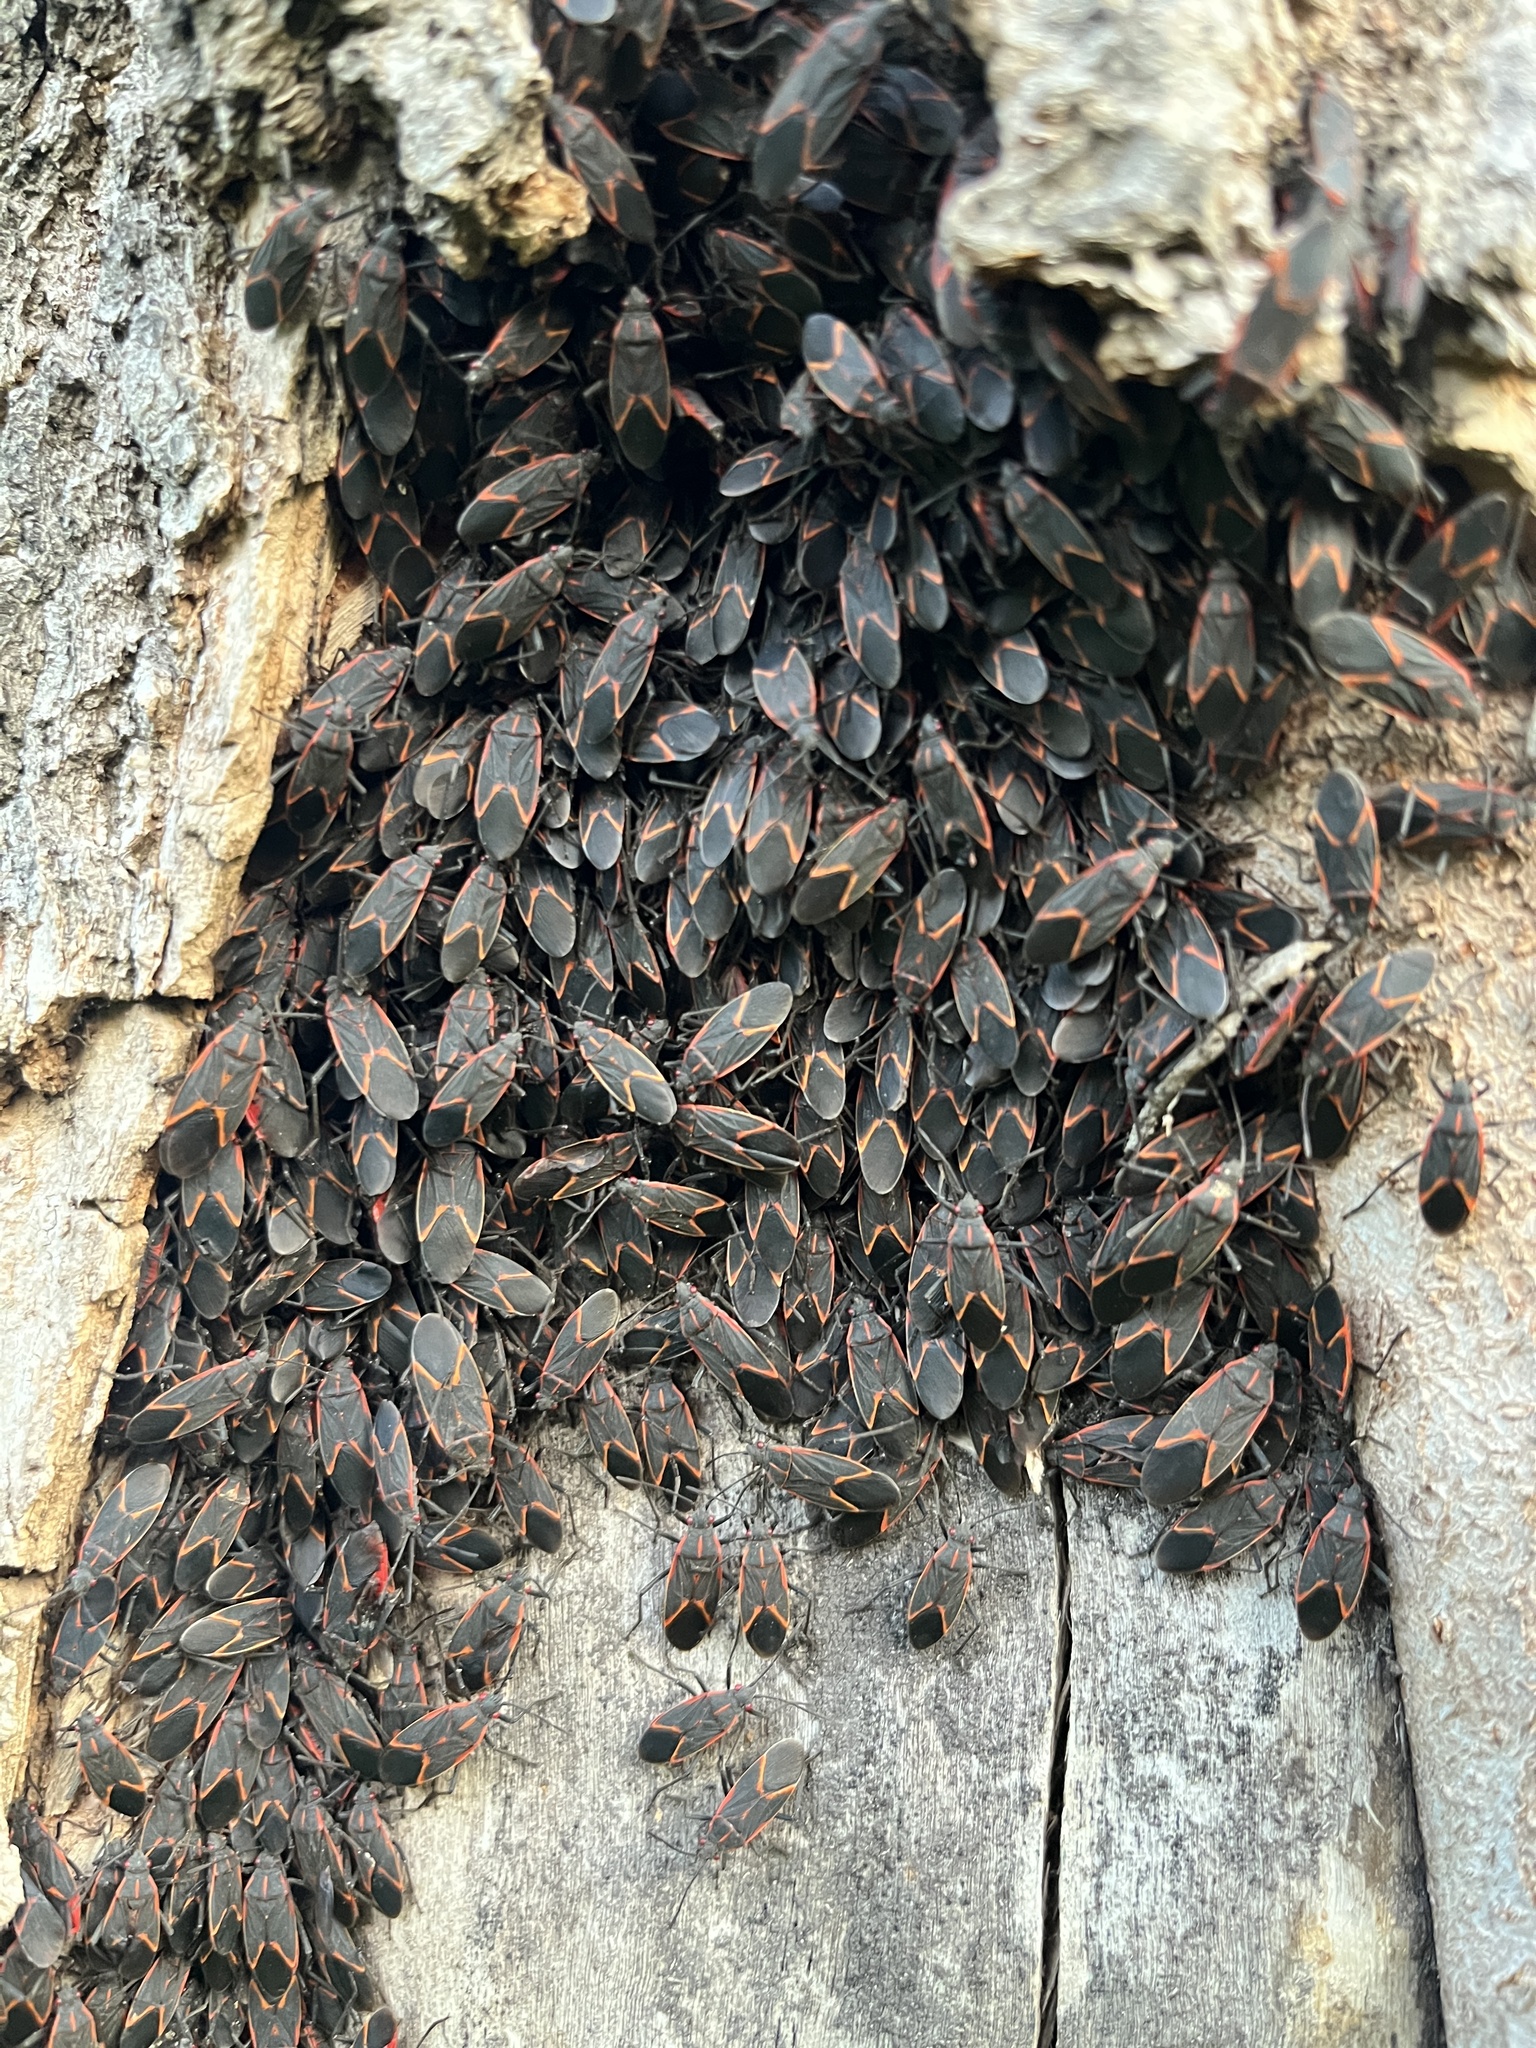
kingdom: Animalia
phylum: Arthropoda
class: Insecta
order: Hemiptera
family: Rhopalidae
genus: Boisea
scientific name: Boisea trivittata
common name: Boxelder bug
